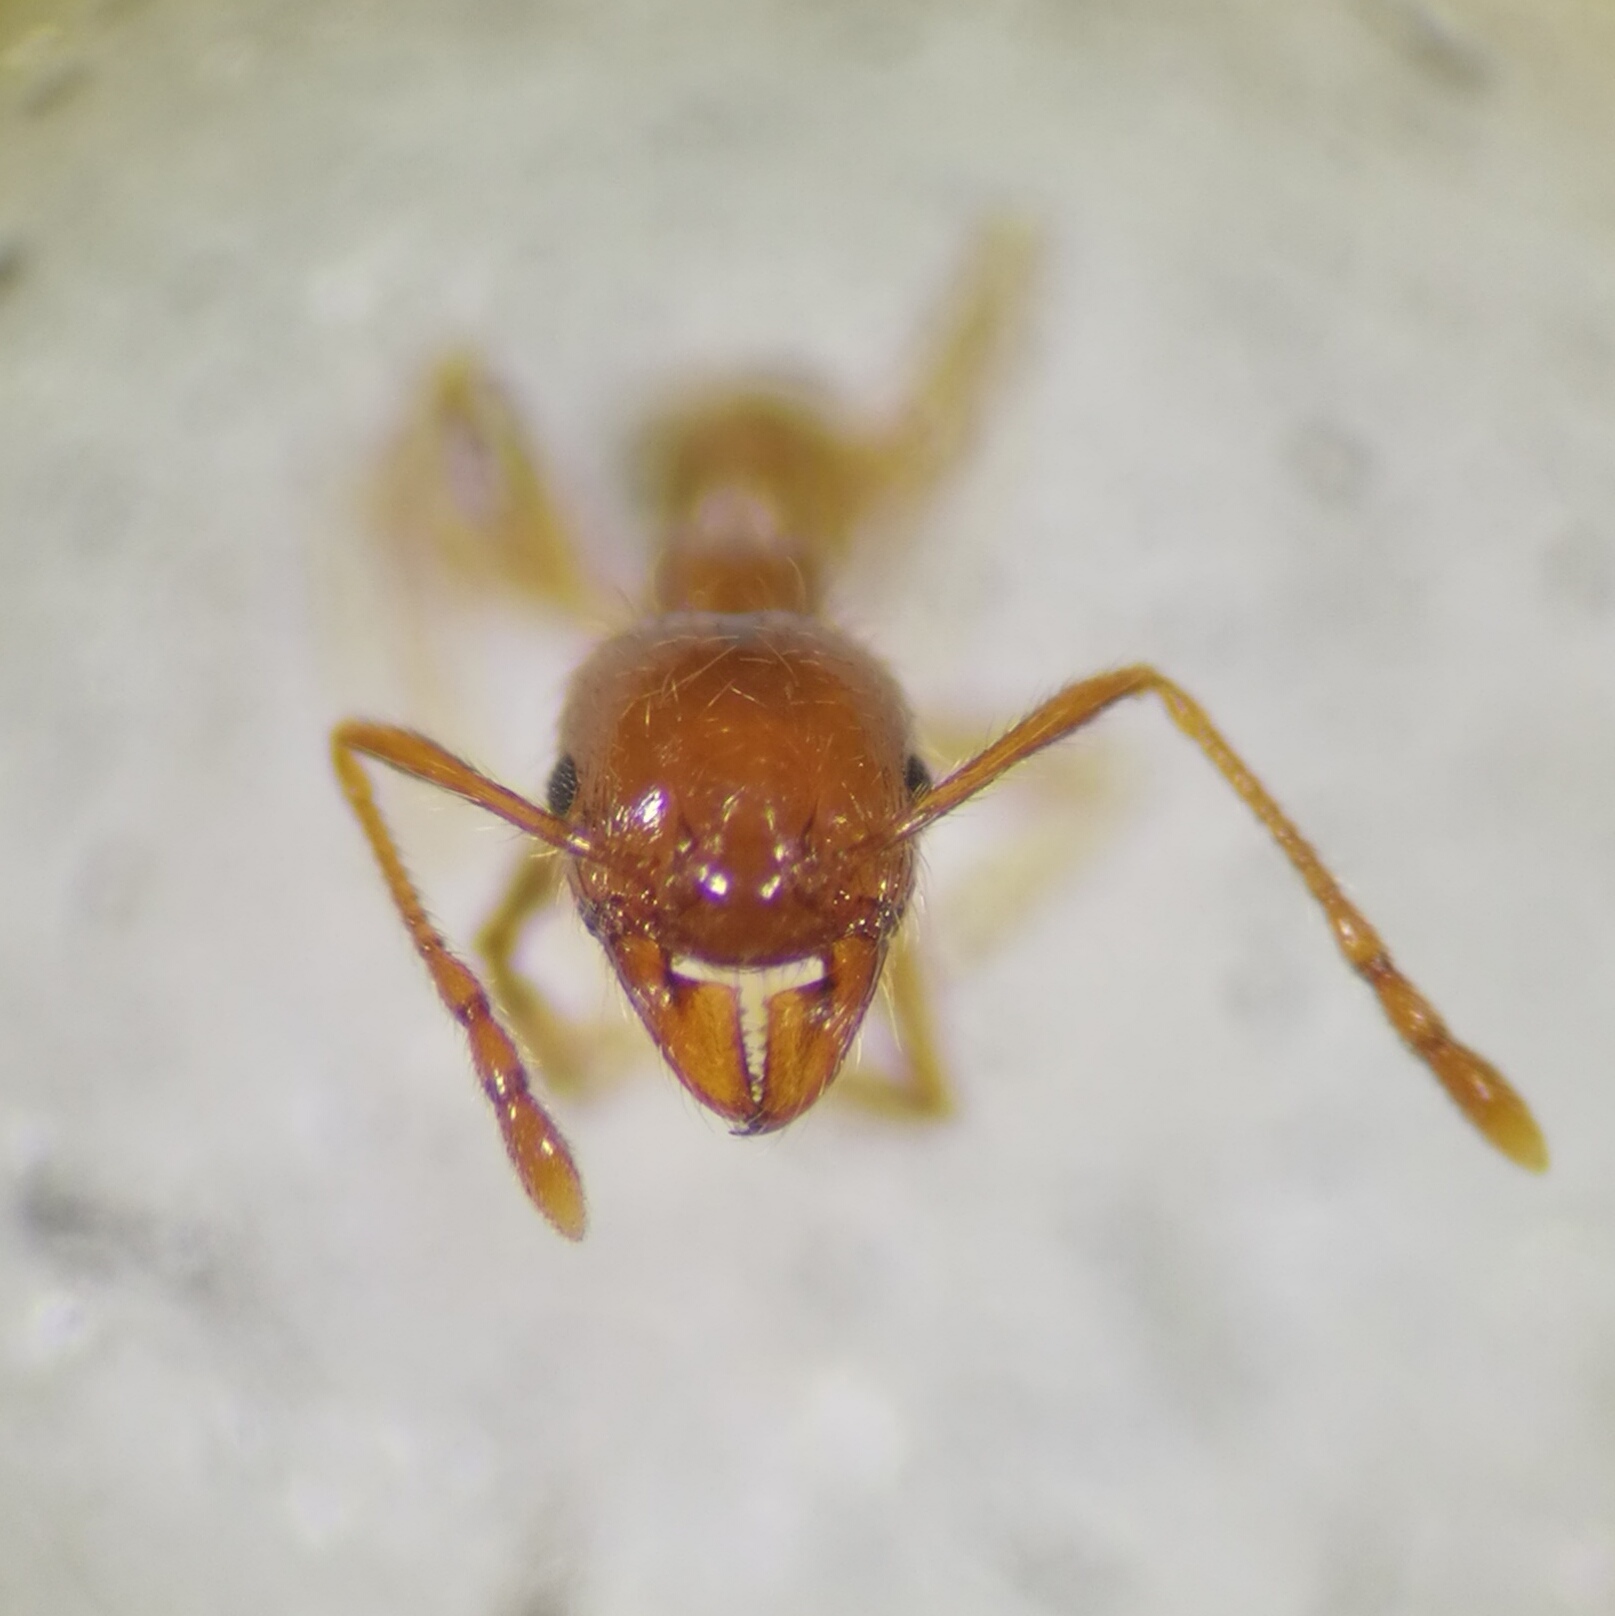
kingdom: Animalia
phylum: Arthropoda
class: Insecta
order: Hymenoptera
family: Formicidae
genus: Pheidole
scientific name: Pheidole pallidula
